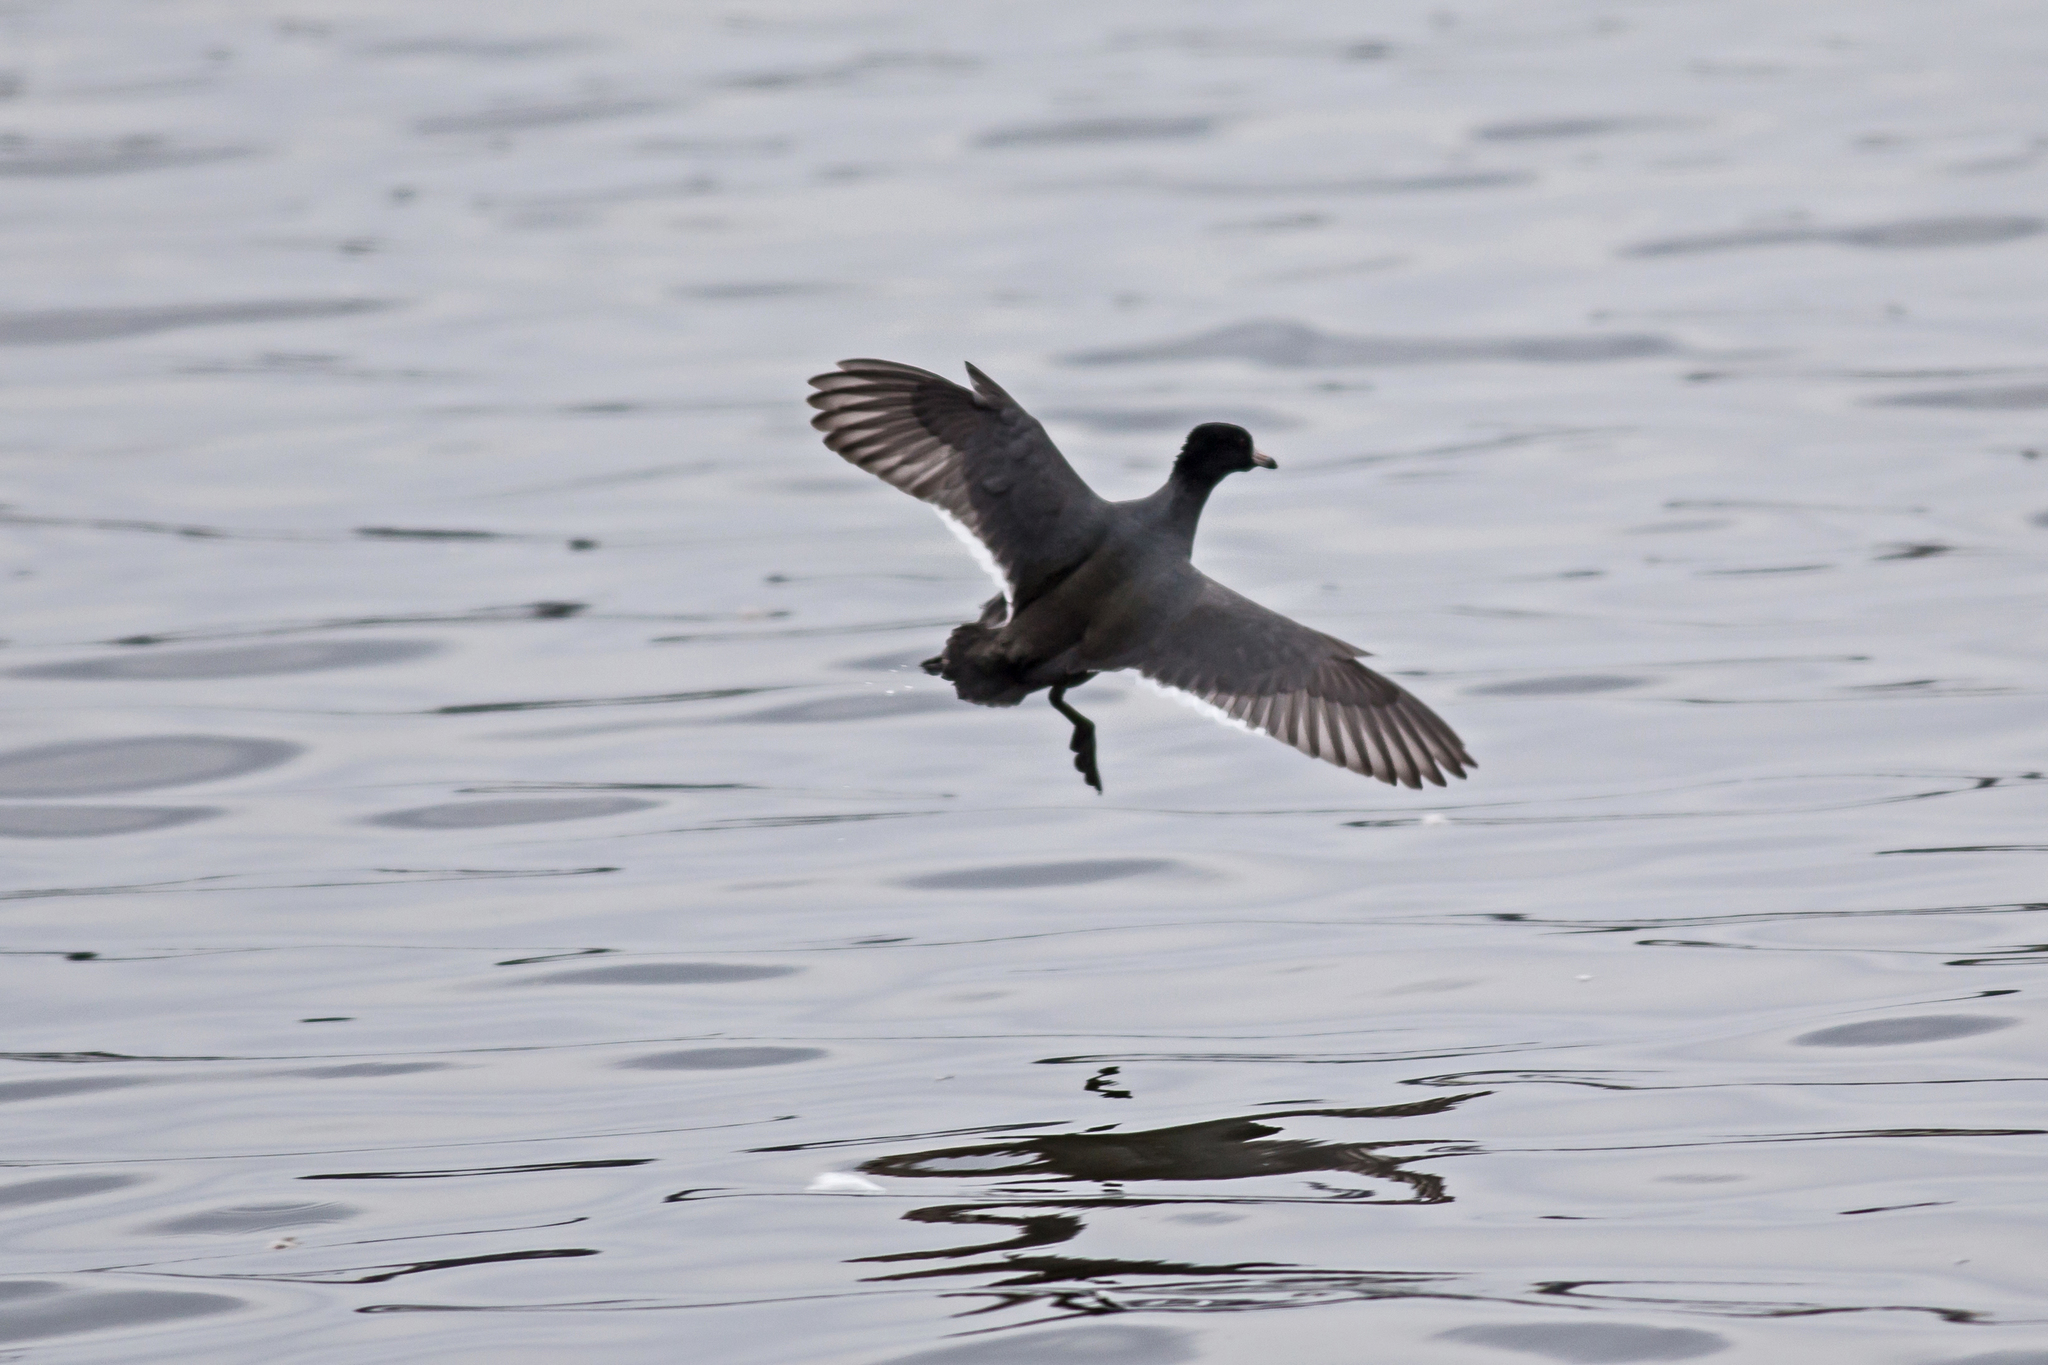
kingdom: Animalia
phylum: Chordata
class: Aves
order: Gruiformes
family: Rallidae
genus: Fulica
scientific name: Fulica americana
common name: American coot
